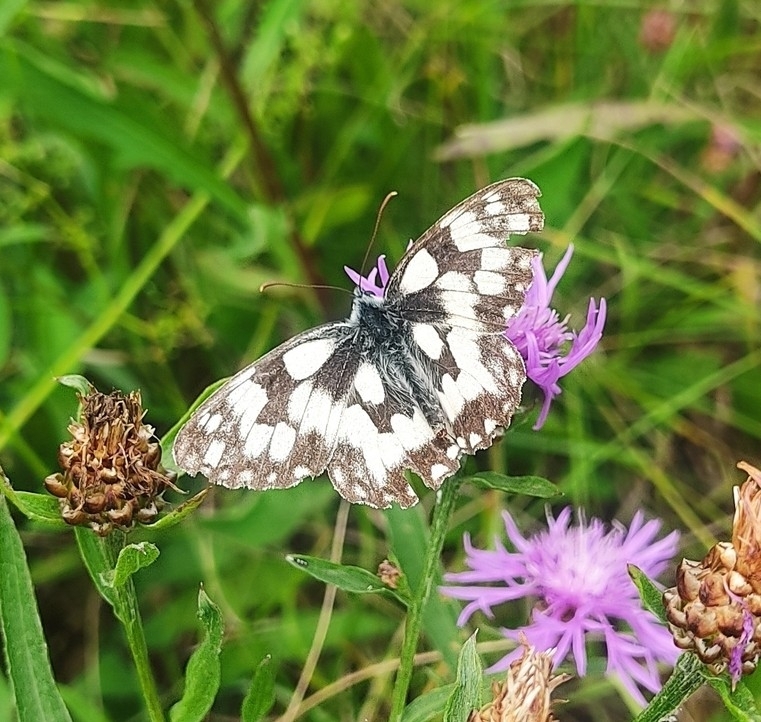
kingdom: Animalia
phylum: Arthropoda
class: Insecta
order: Lepidoptera
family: Nymphalidae
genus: Melanargia
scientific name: Melanargia galathea
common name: Marbled white
